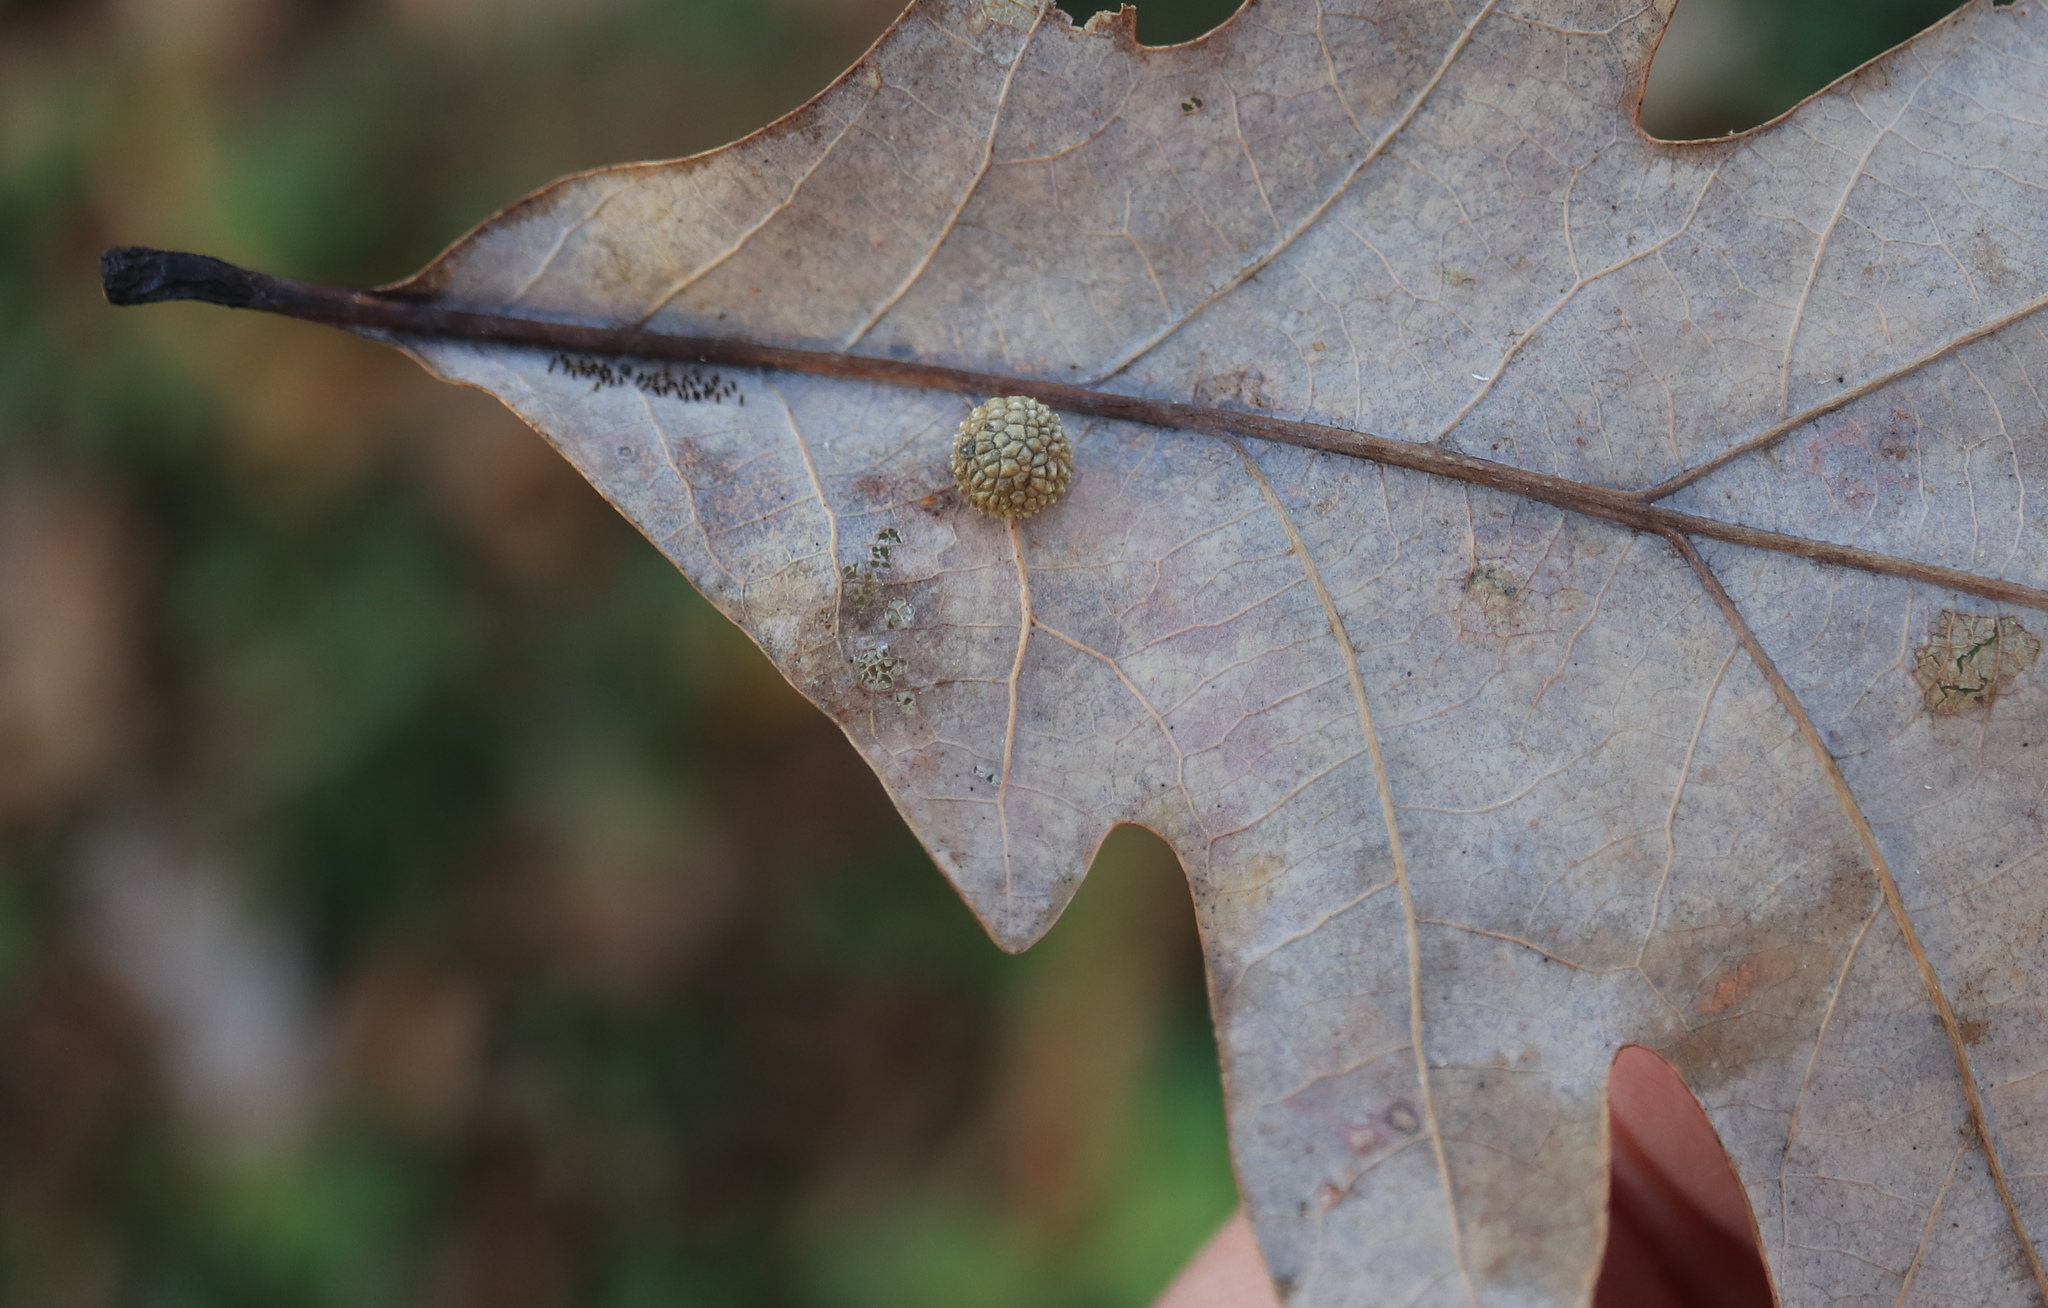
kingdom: Animalia
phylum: Arthropoda
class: Insecta
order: Hymenoptera
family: Cynipidae
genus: Acraspis
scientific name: Acraspis
